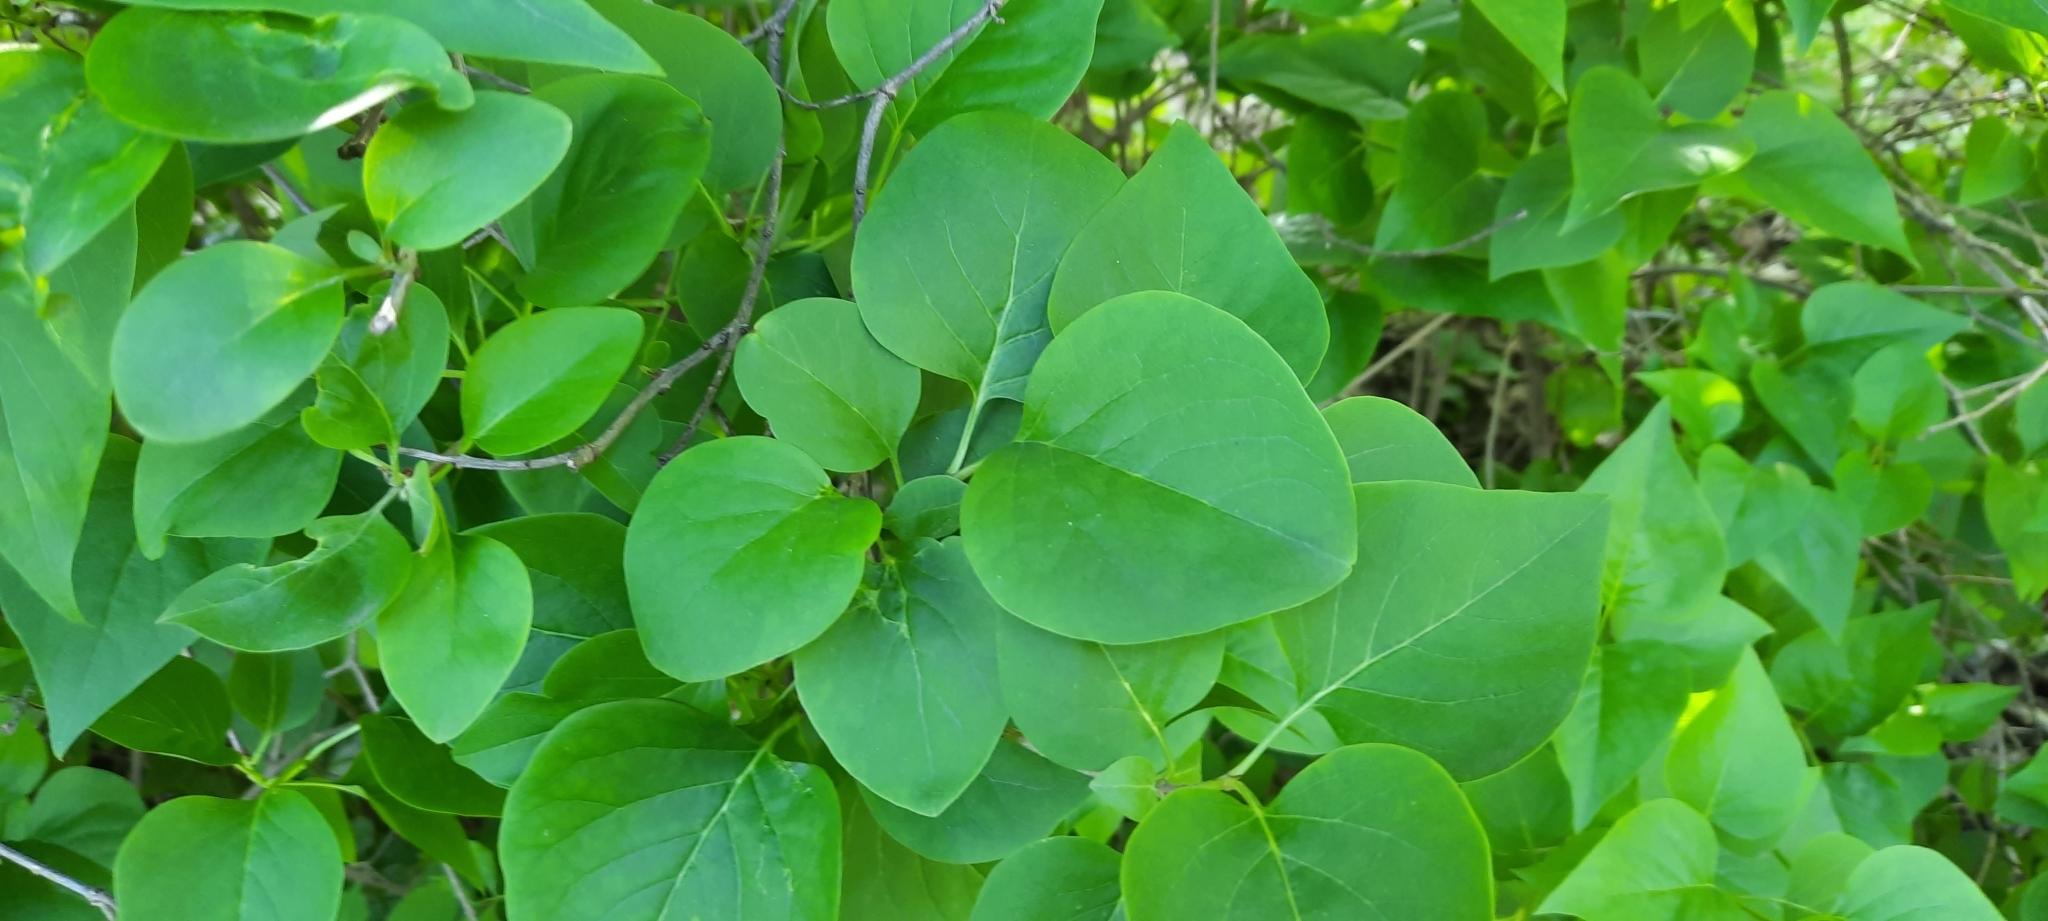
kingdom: Plantae
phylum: Tracheophyta
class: Magnoliopsida
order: Lamiales
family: Oleaceae
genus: Syringa
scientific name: Syringa vulgaris
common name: Common lilac
